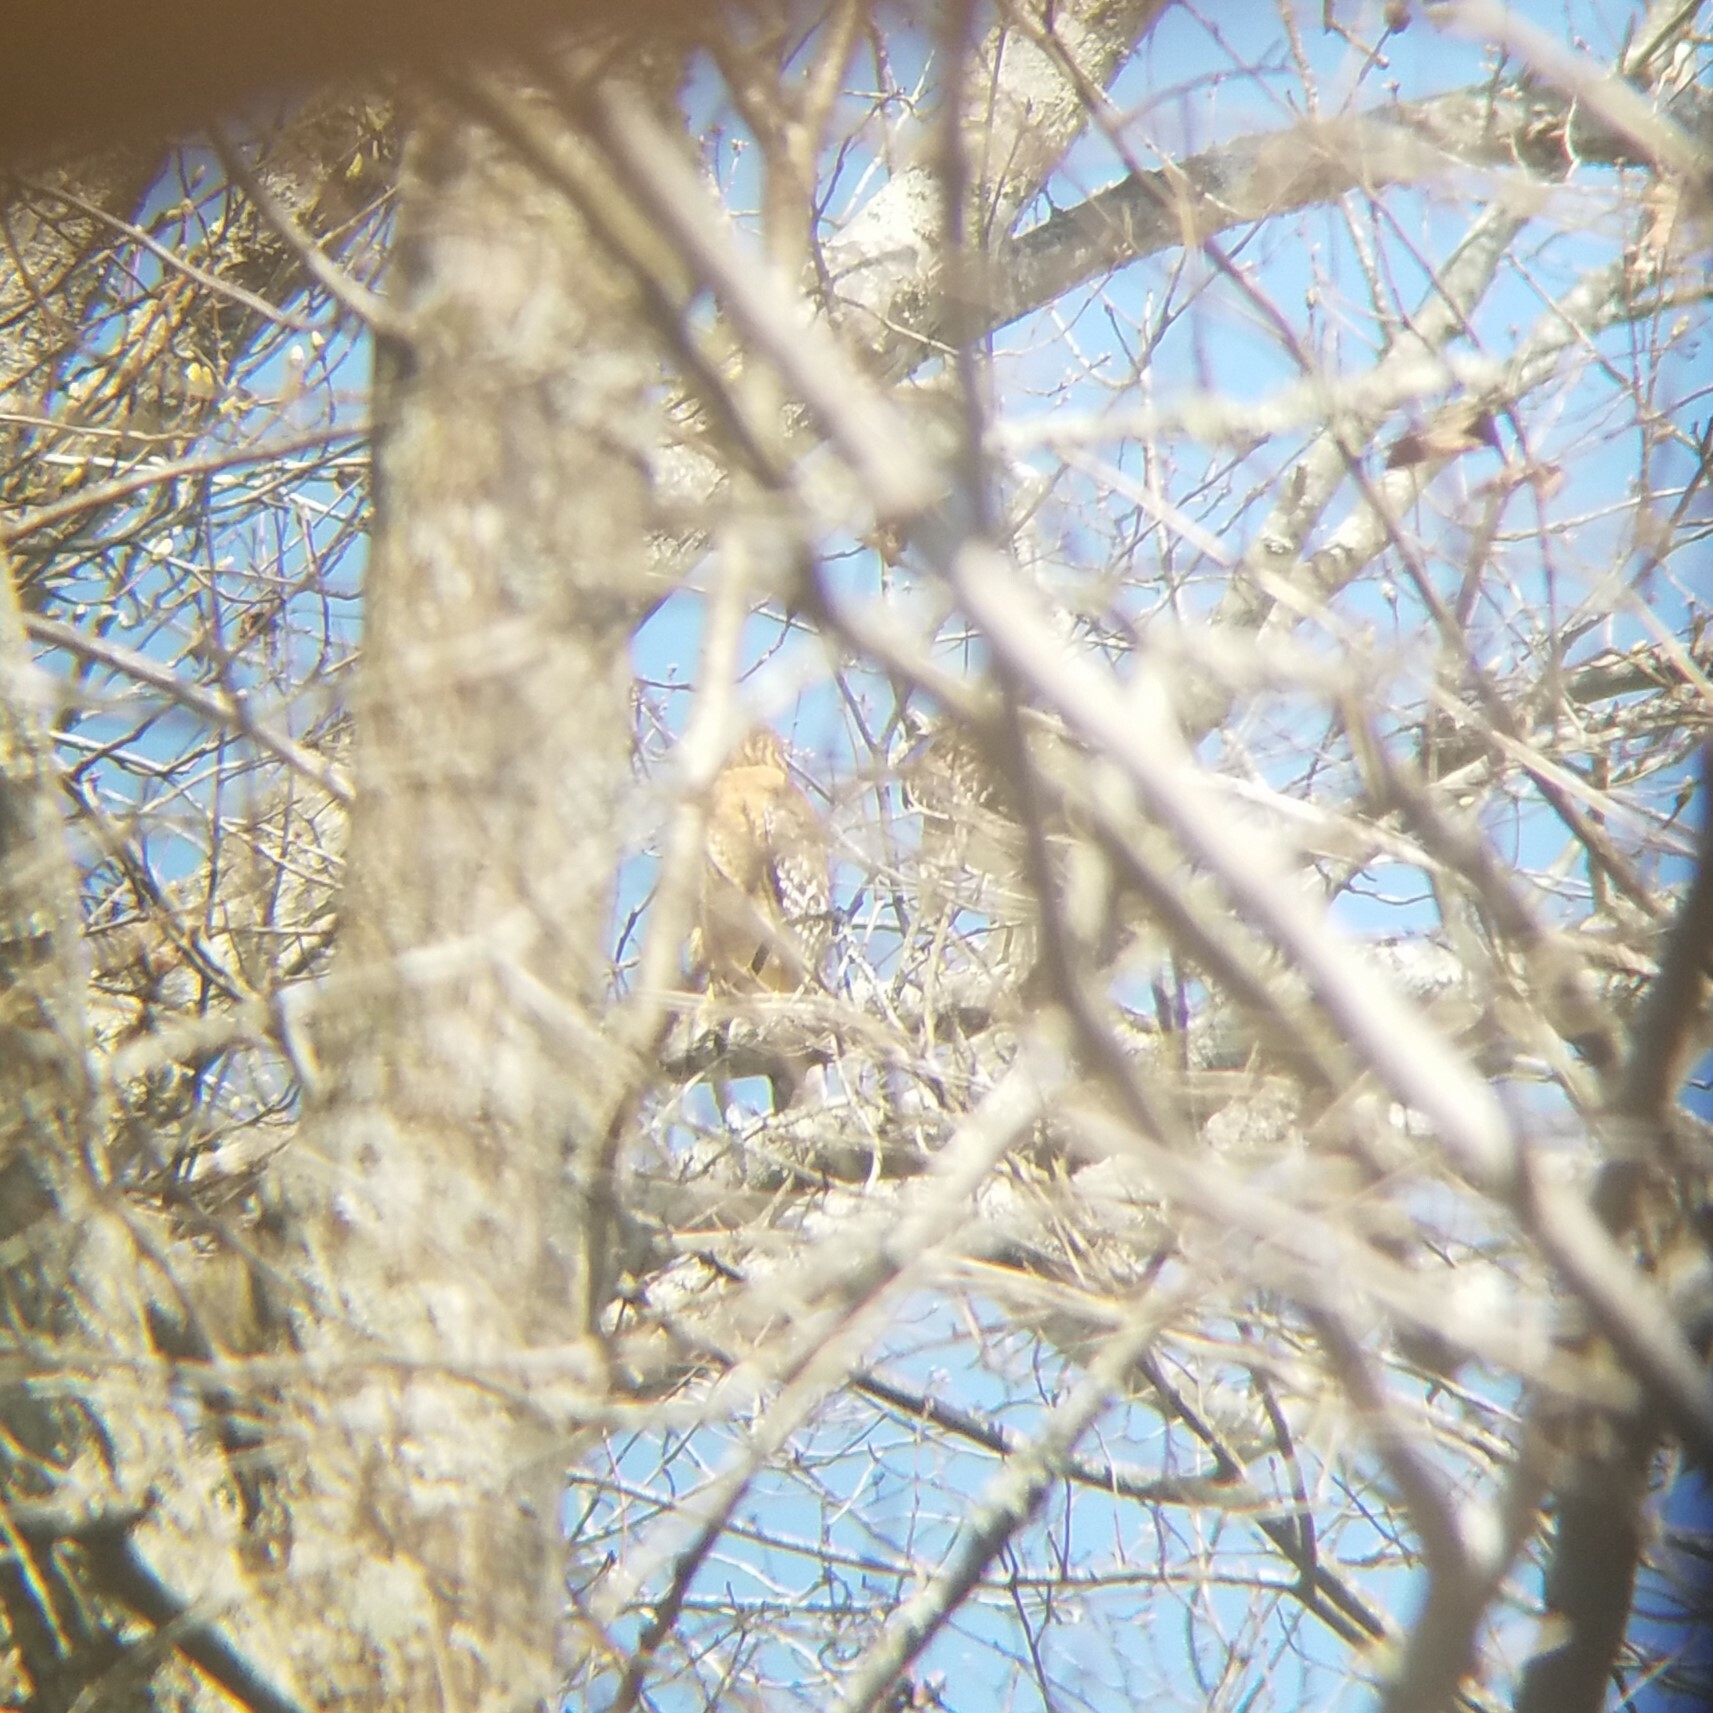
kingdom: Animalia
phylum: Chordata
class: Aves
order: Accipitriformes
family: Accipitridae
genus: Buteo
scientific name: Buteo lineatus
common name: Red-shouldered hawk
